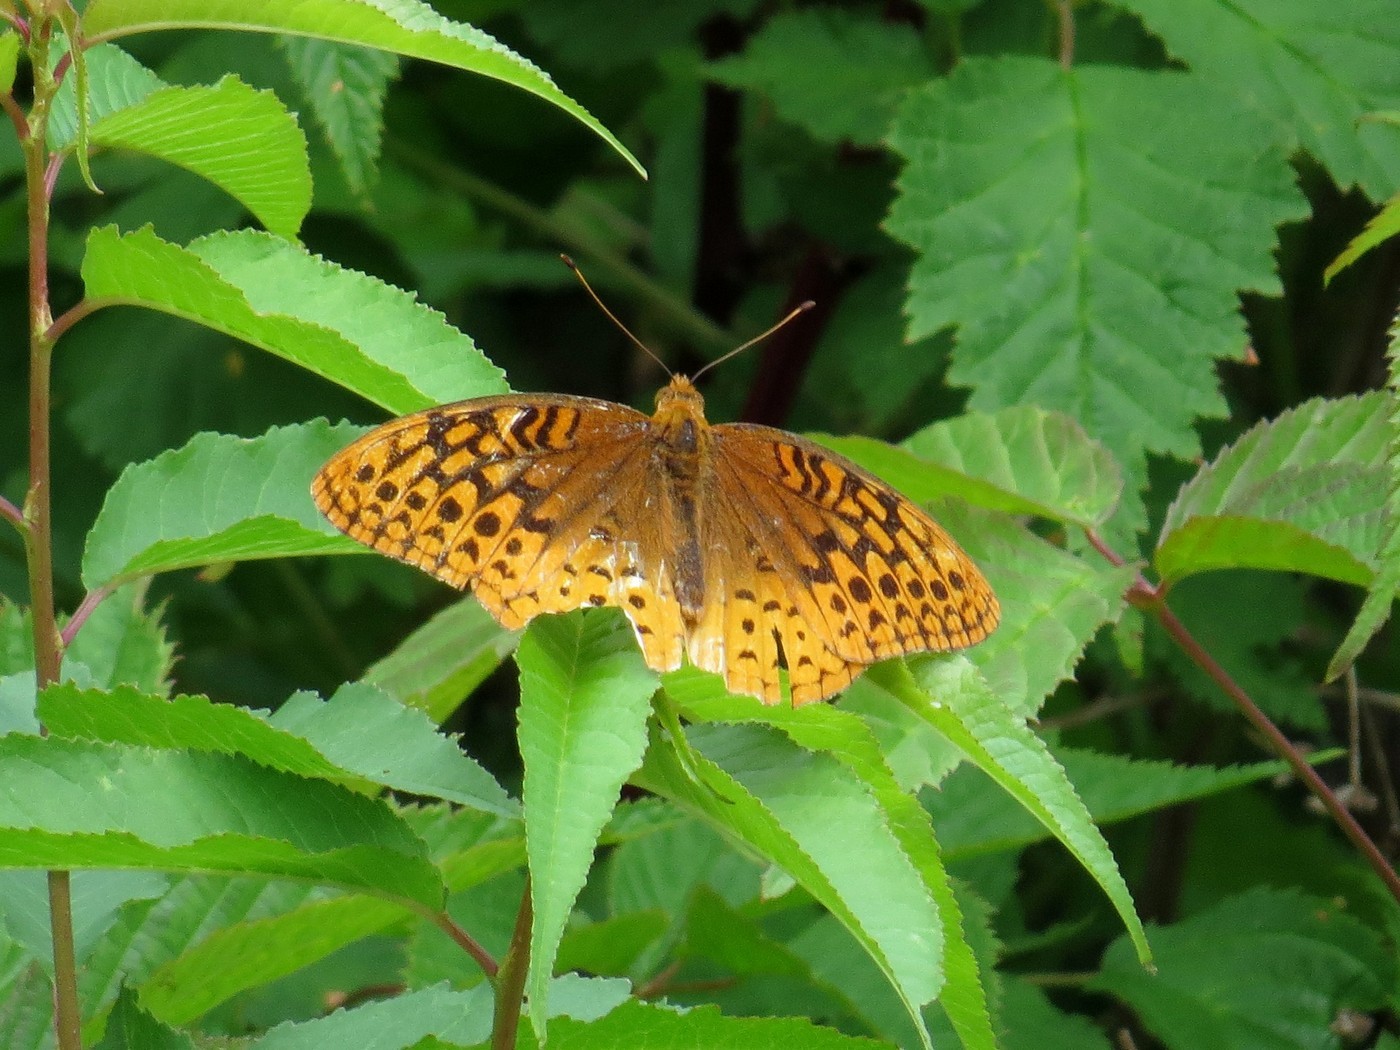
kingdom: Animalia
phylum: Arthropoda
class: Insecta
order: Lepidoptera
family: Nymphalidae
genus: Speyeria
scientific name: Speyeria cybele
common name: Great spangled fritillary
